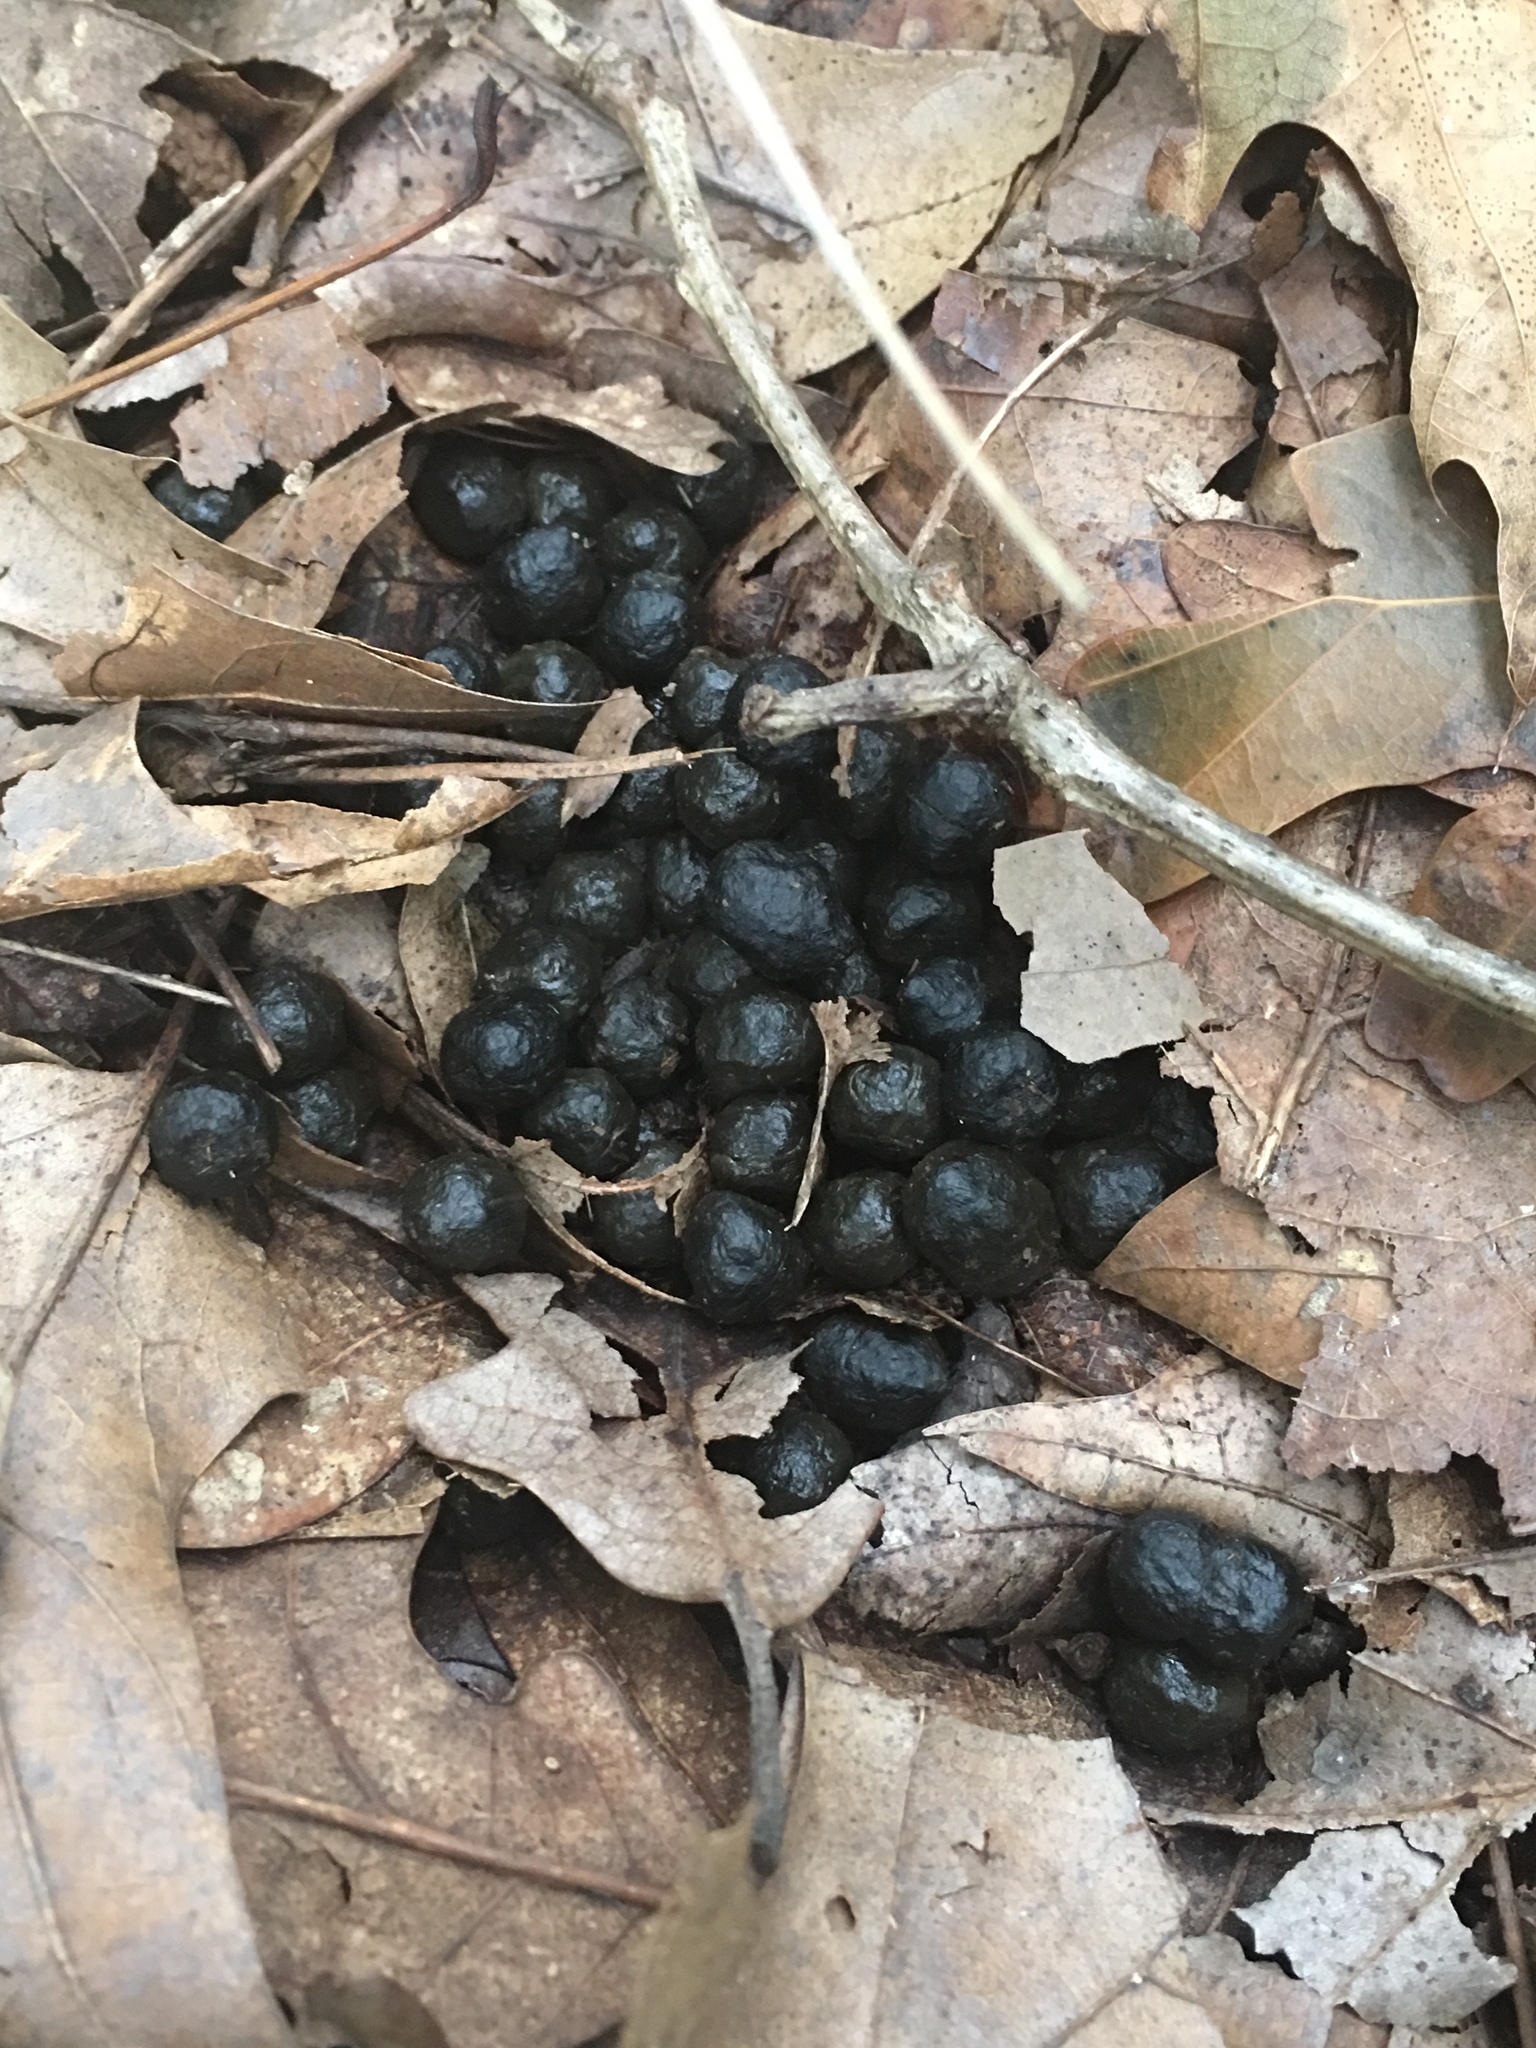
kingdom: Animalia
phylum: Chordata
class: Mammalia
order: Artiodactyla
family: Cervidae
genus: Odocoileus
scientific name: Odocoileus virginianus
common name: White-tailed deer
